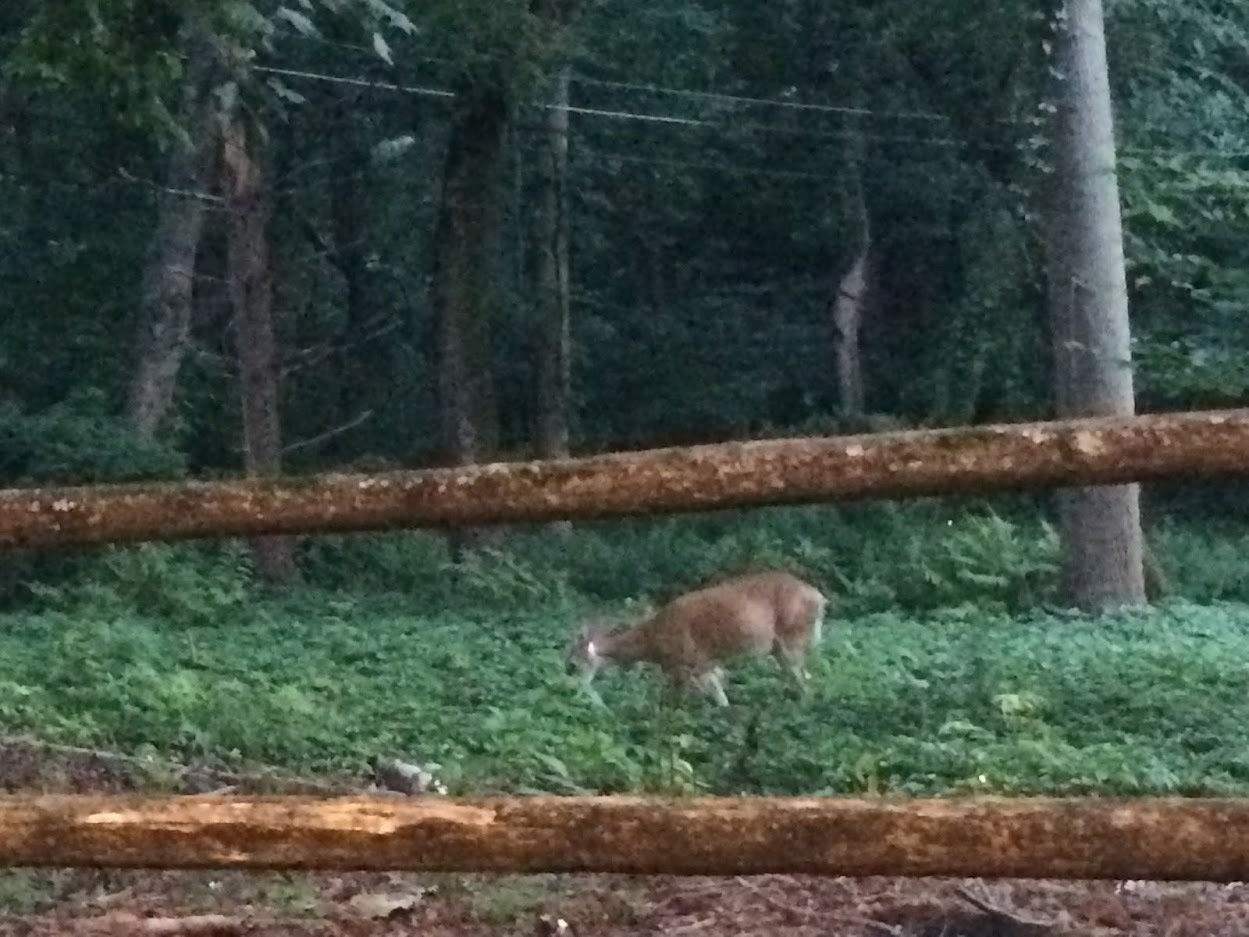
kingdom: Animalia
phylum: Chordata
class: Mammalia
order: Artiodactyla
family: Cervidae
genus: Odocoileus
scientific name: Odocoileus virginianus
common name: White-tailed deer
